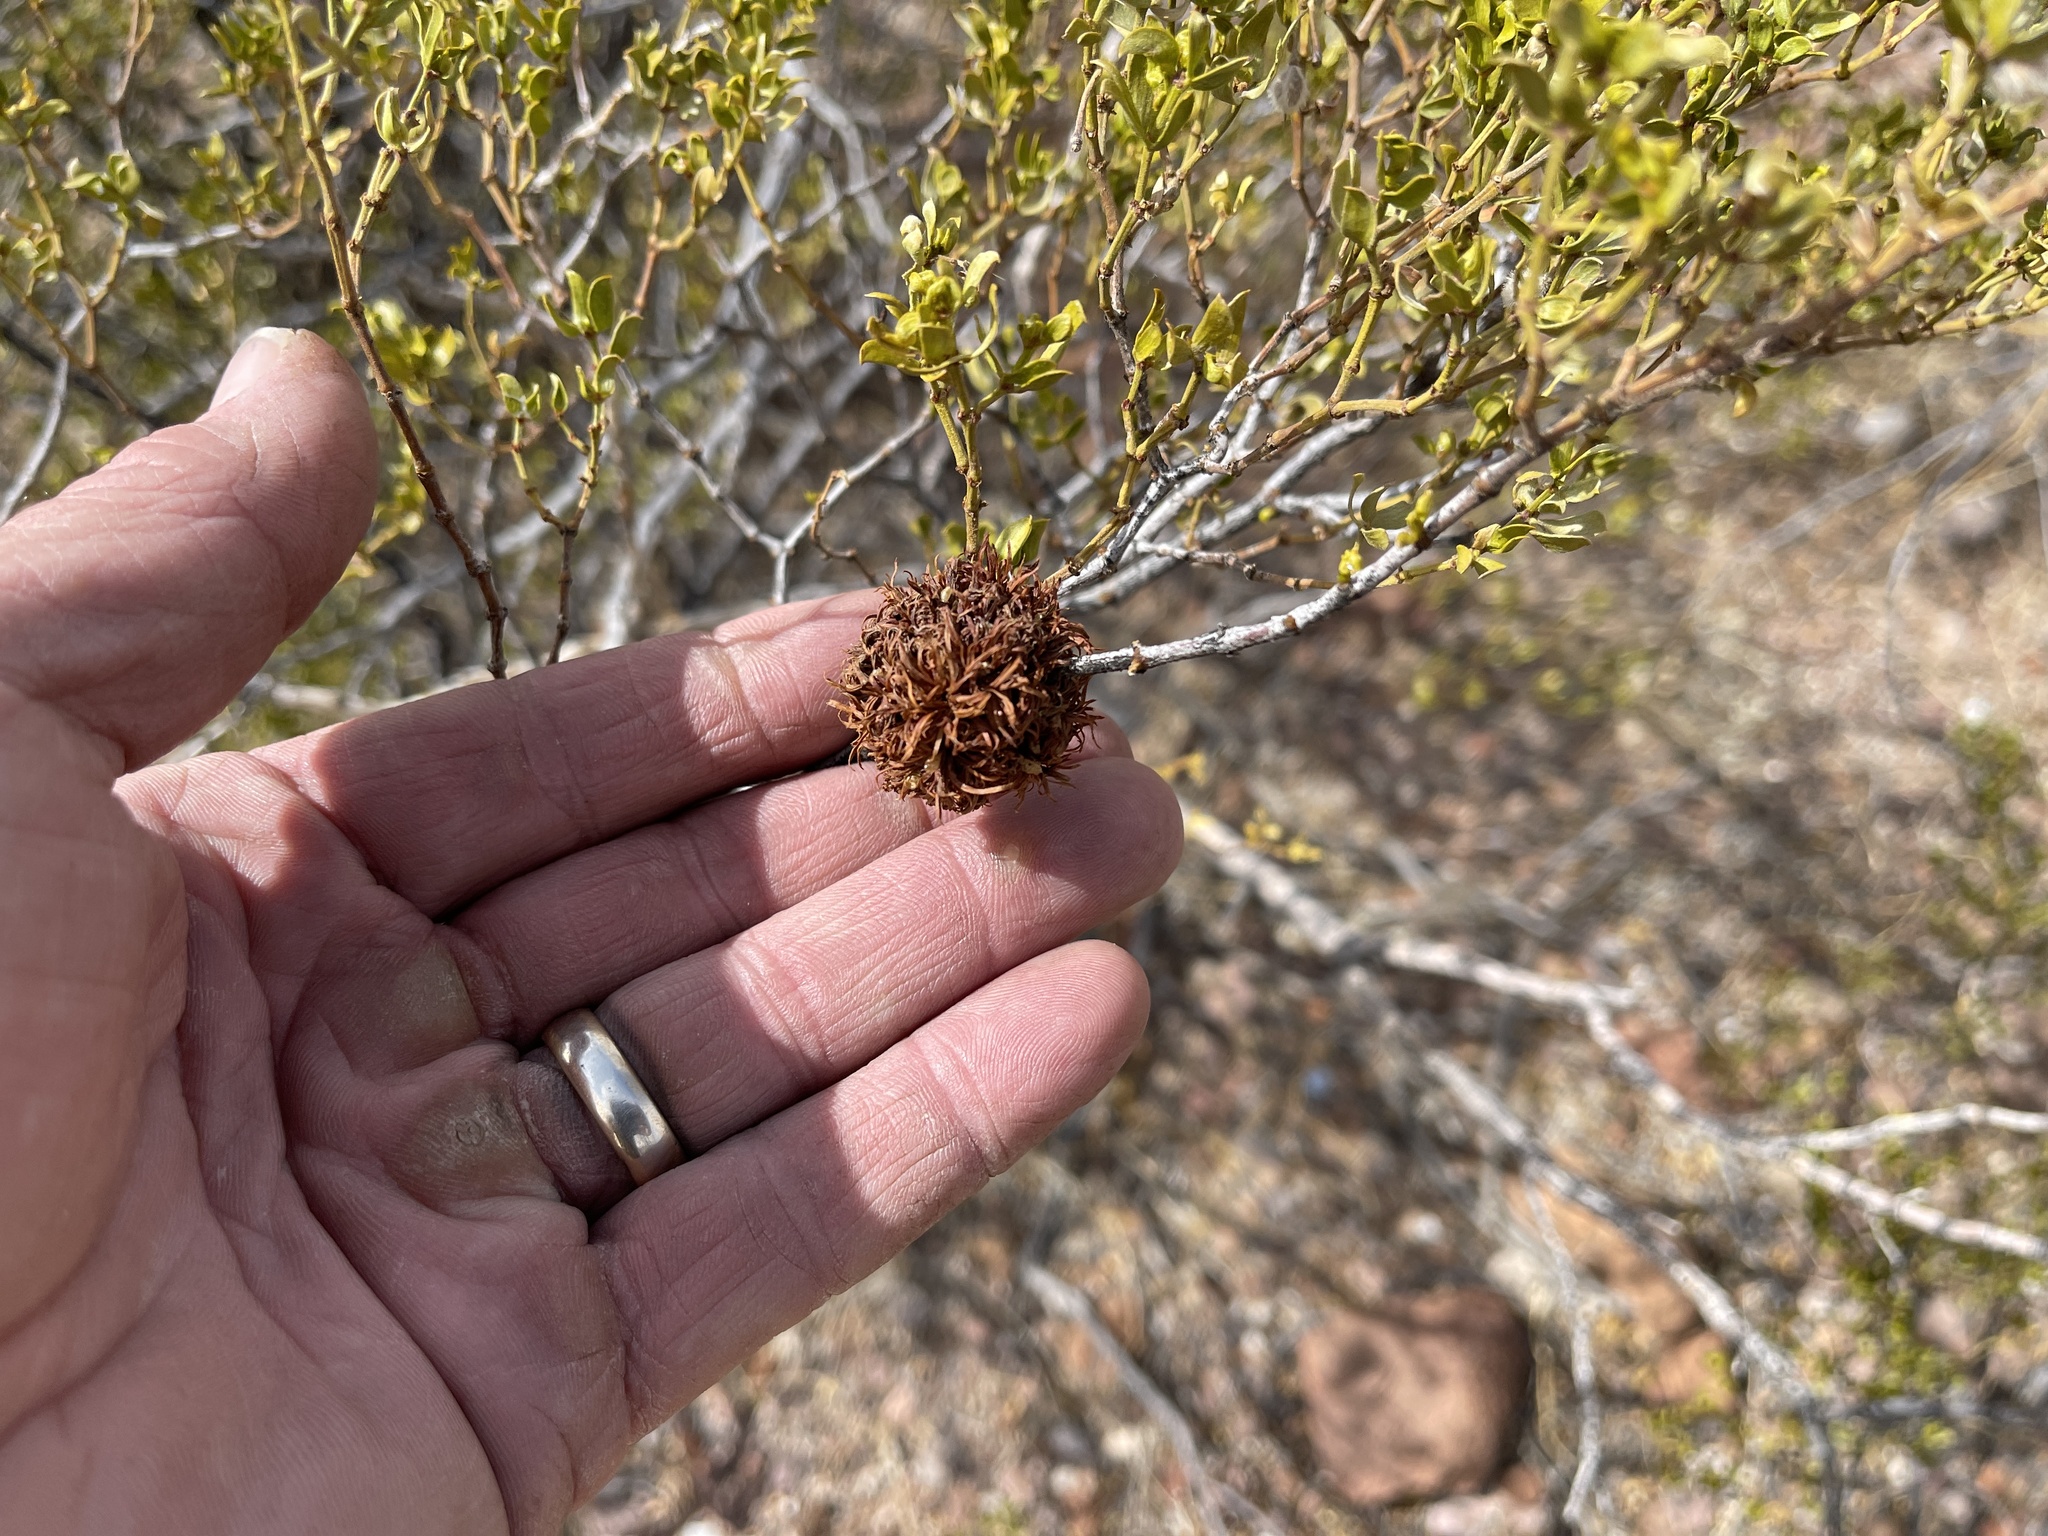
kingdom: Animalia
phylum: Arthropoda
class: Insecta
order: Diptera
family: Cecidomyiidae
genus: Asphondylia
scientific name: Asphondylia auripila
